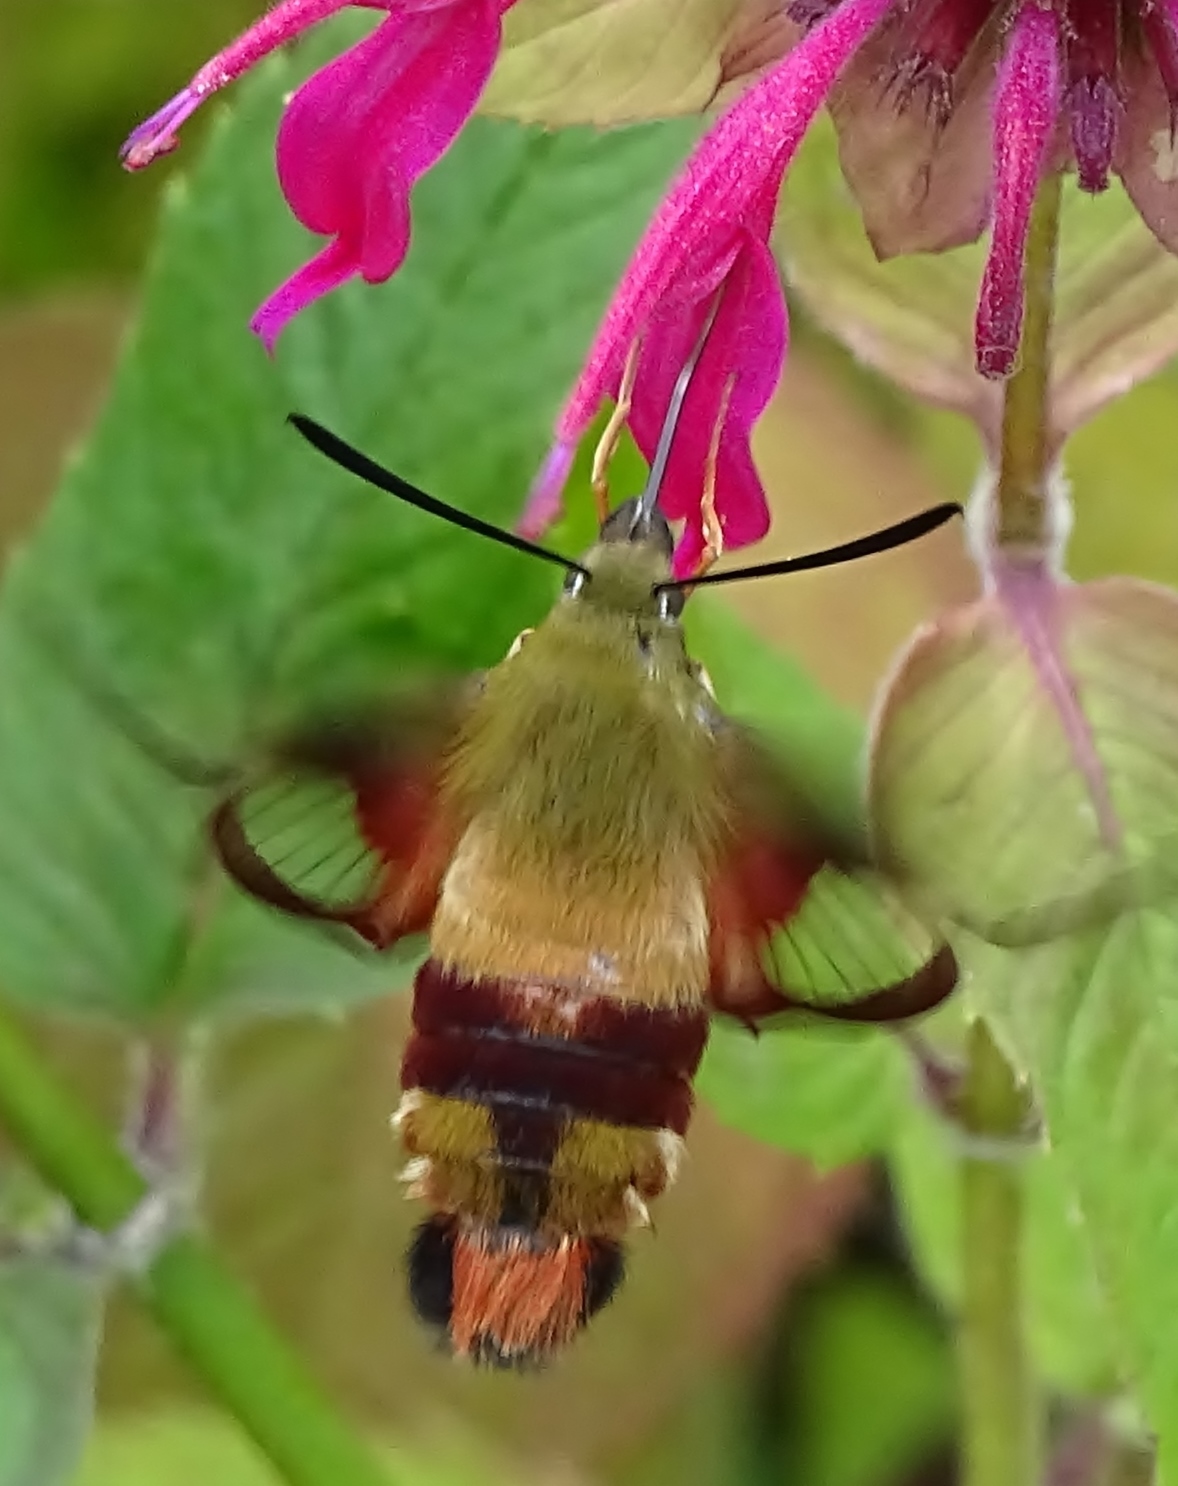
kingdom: Animalia
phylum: Arthropoda
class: Insecta
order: Lepidoptera
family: Sphingidae
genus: Hemaris
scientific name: Hemaris thysbe
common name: Common clear-wing
